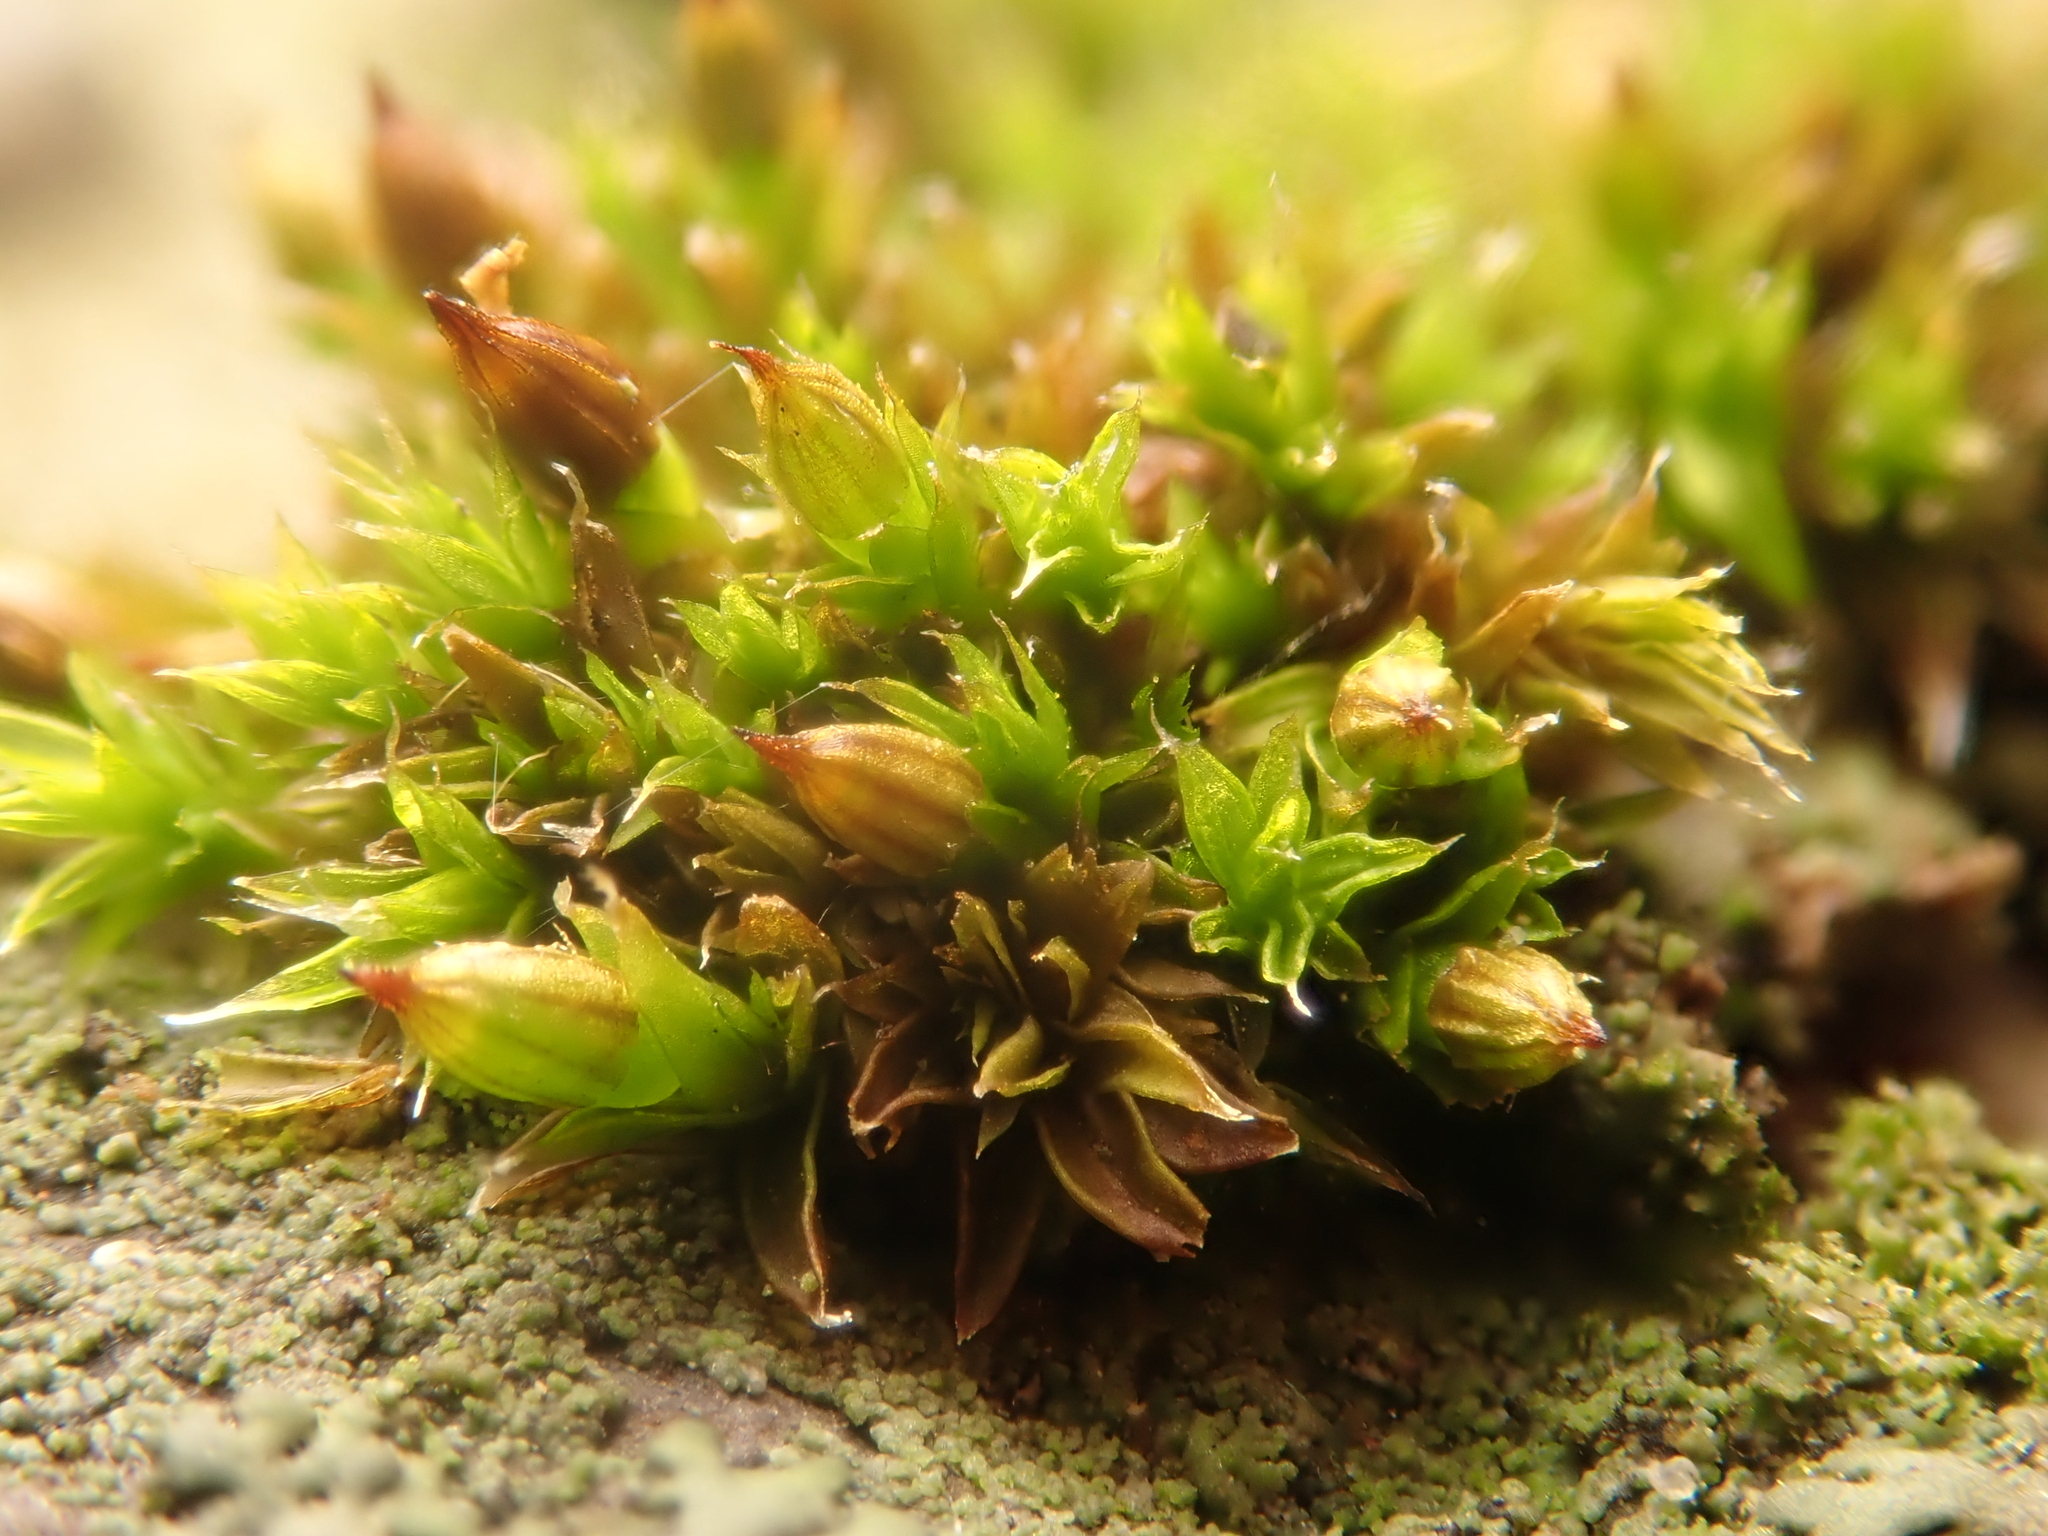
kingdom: Plantae
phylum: Bryophyta
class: Bryopsida
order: Orthotrichales
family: Orthotrichaceae
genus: Orthotrichum
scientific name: Orthotrichum diaphanum
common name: White-tipped bristle-moss
